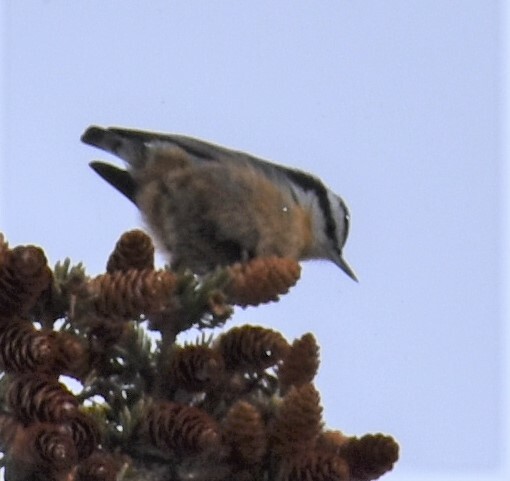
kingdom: Animalia
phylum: Chordata
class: Aves
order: Passeriformes
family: Sittidae
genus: Sitta
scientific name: Sitta canadensis
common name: Red-breasted nuthatch
